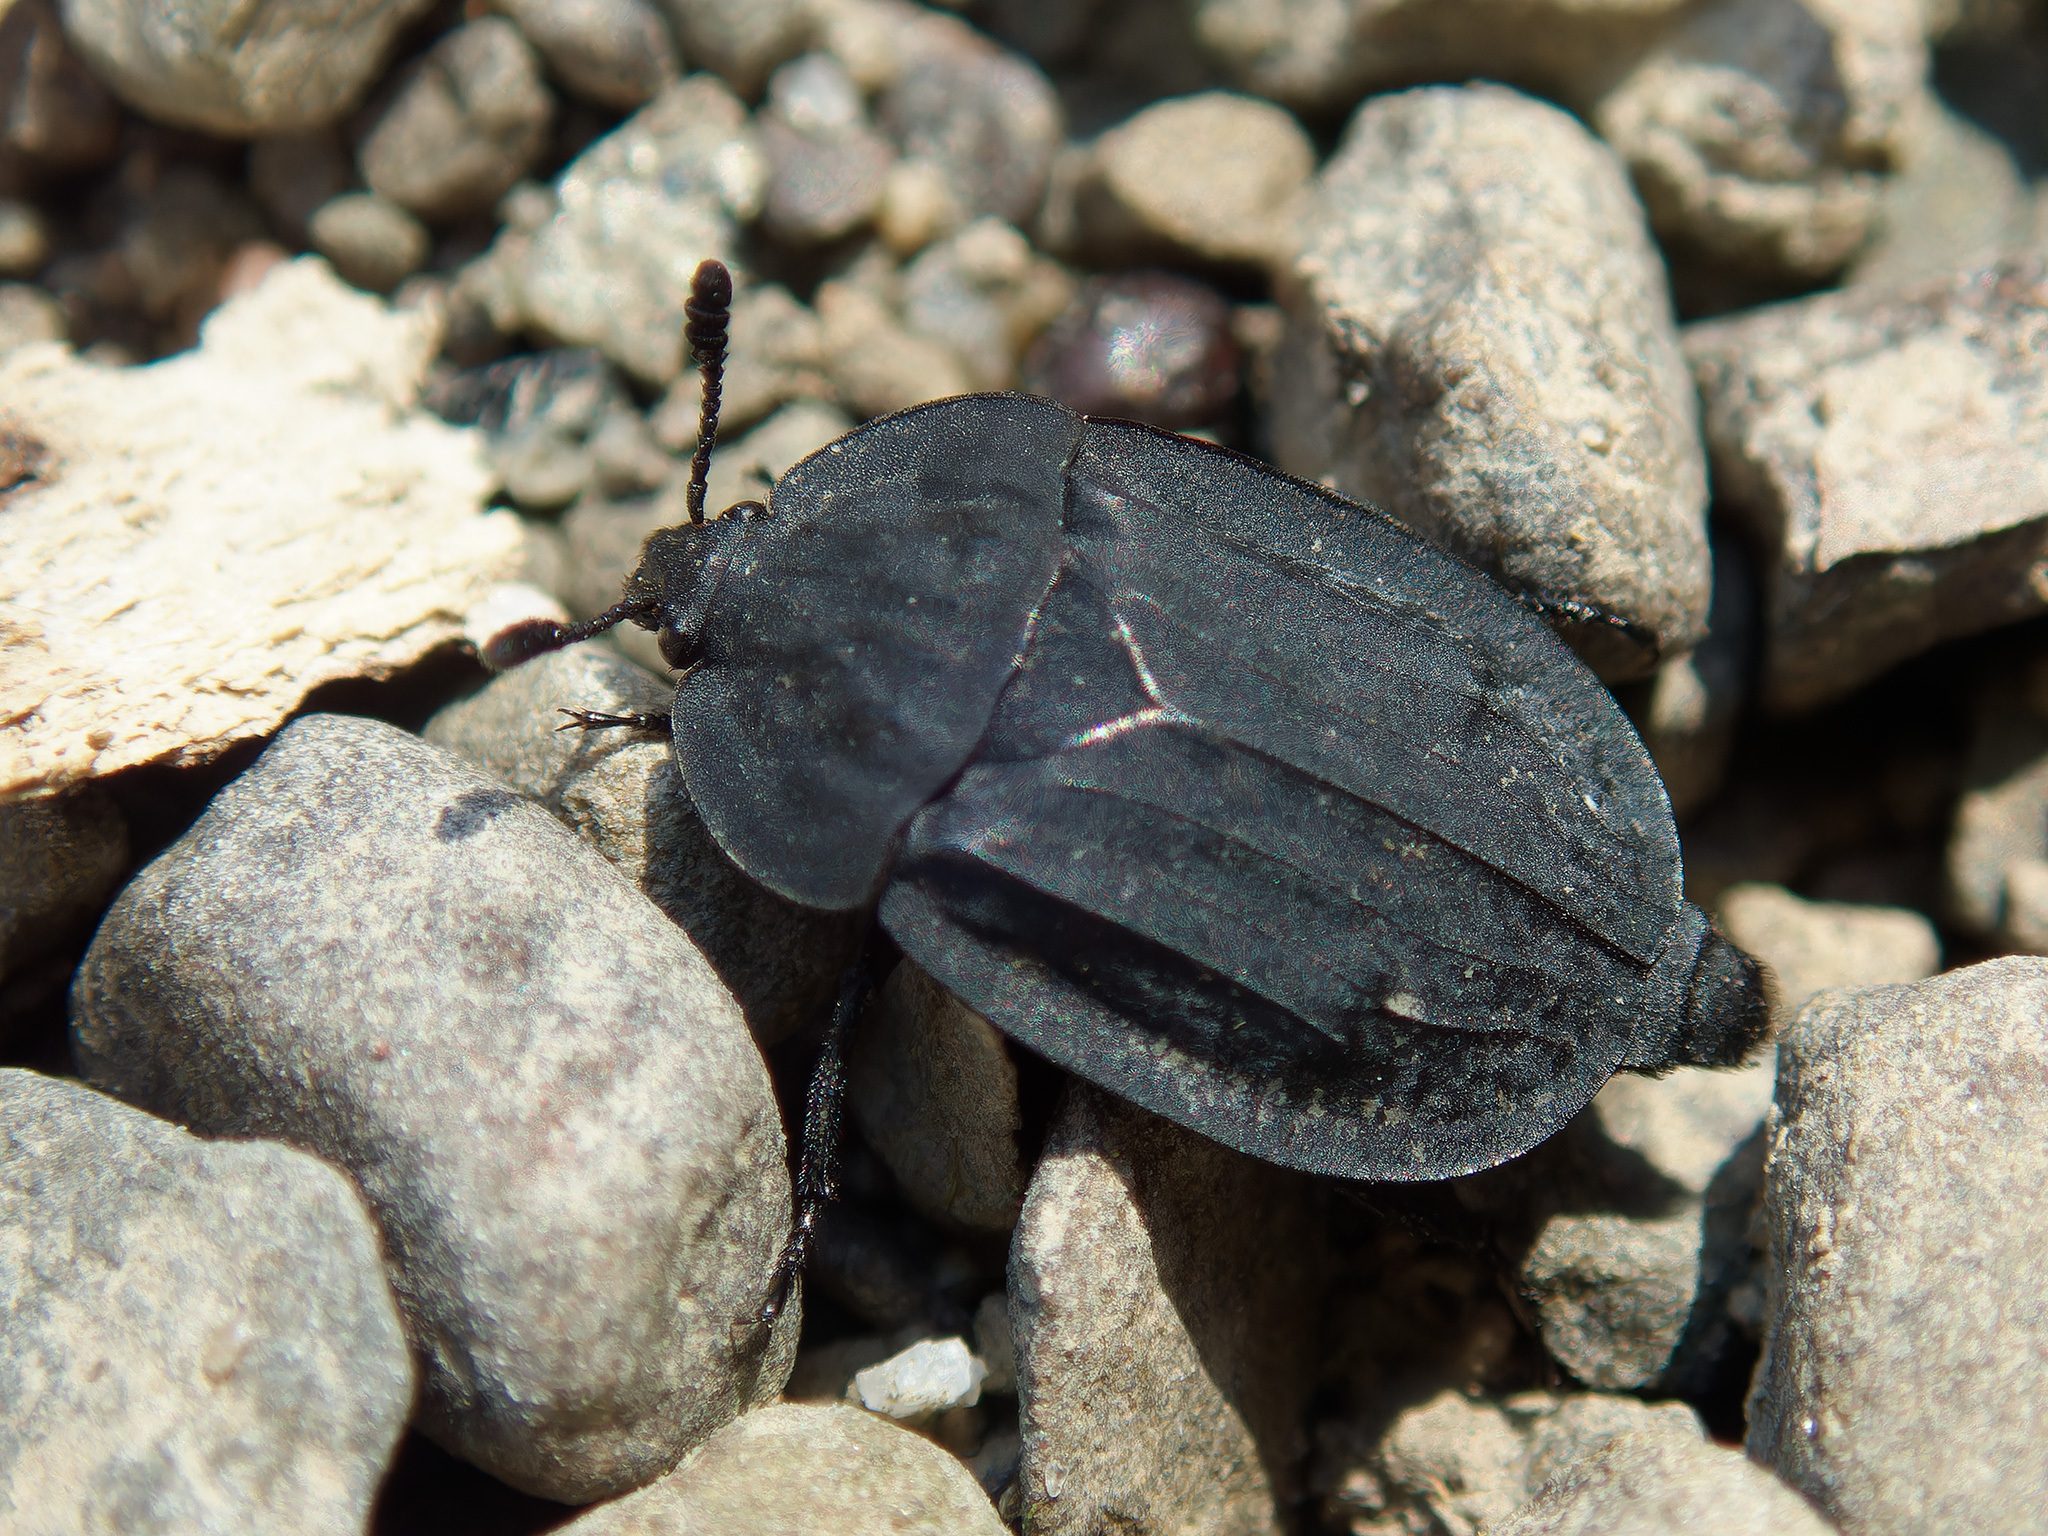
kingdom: Animalia
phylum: Arthropoda
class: Insecta
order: Coleoptera
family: Staphylinidae
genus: Oiceoptoma
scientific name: Oiceoptoma inaequale
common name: Ridged carrion beetle
